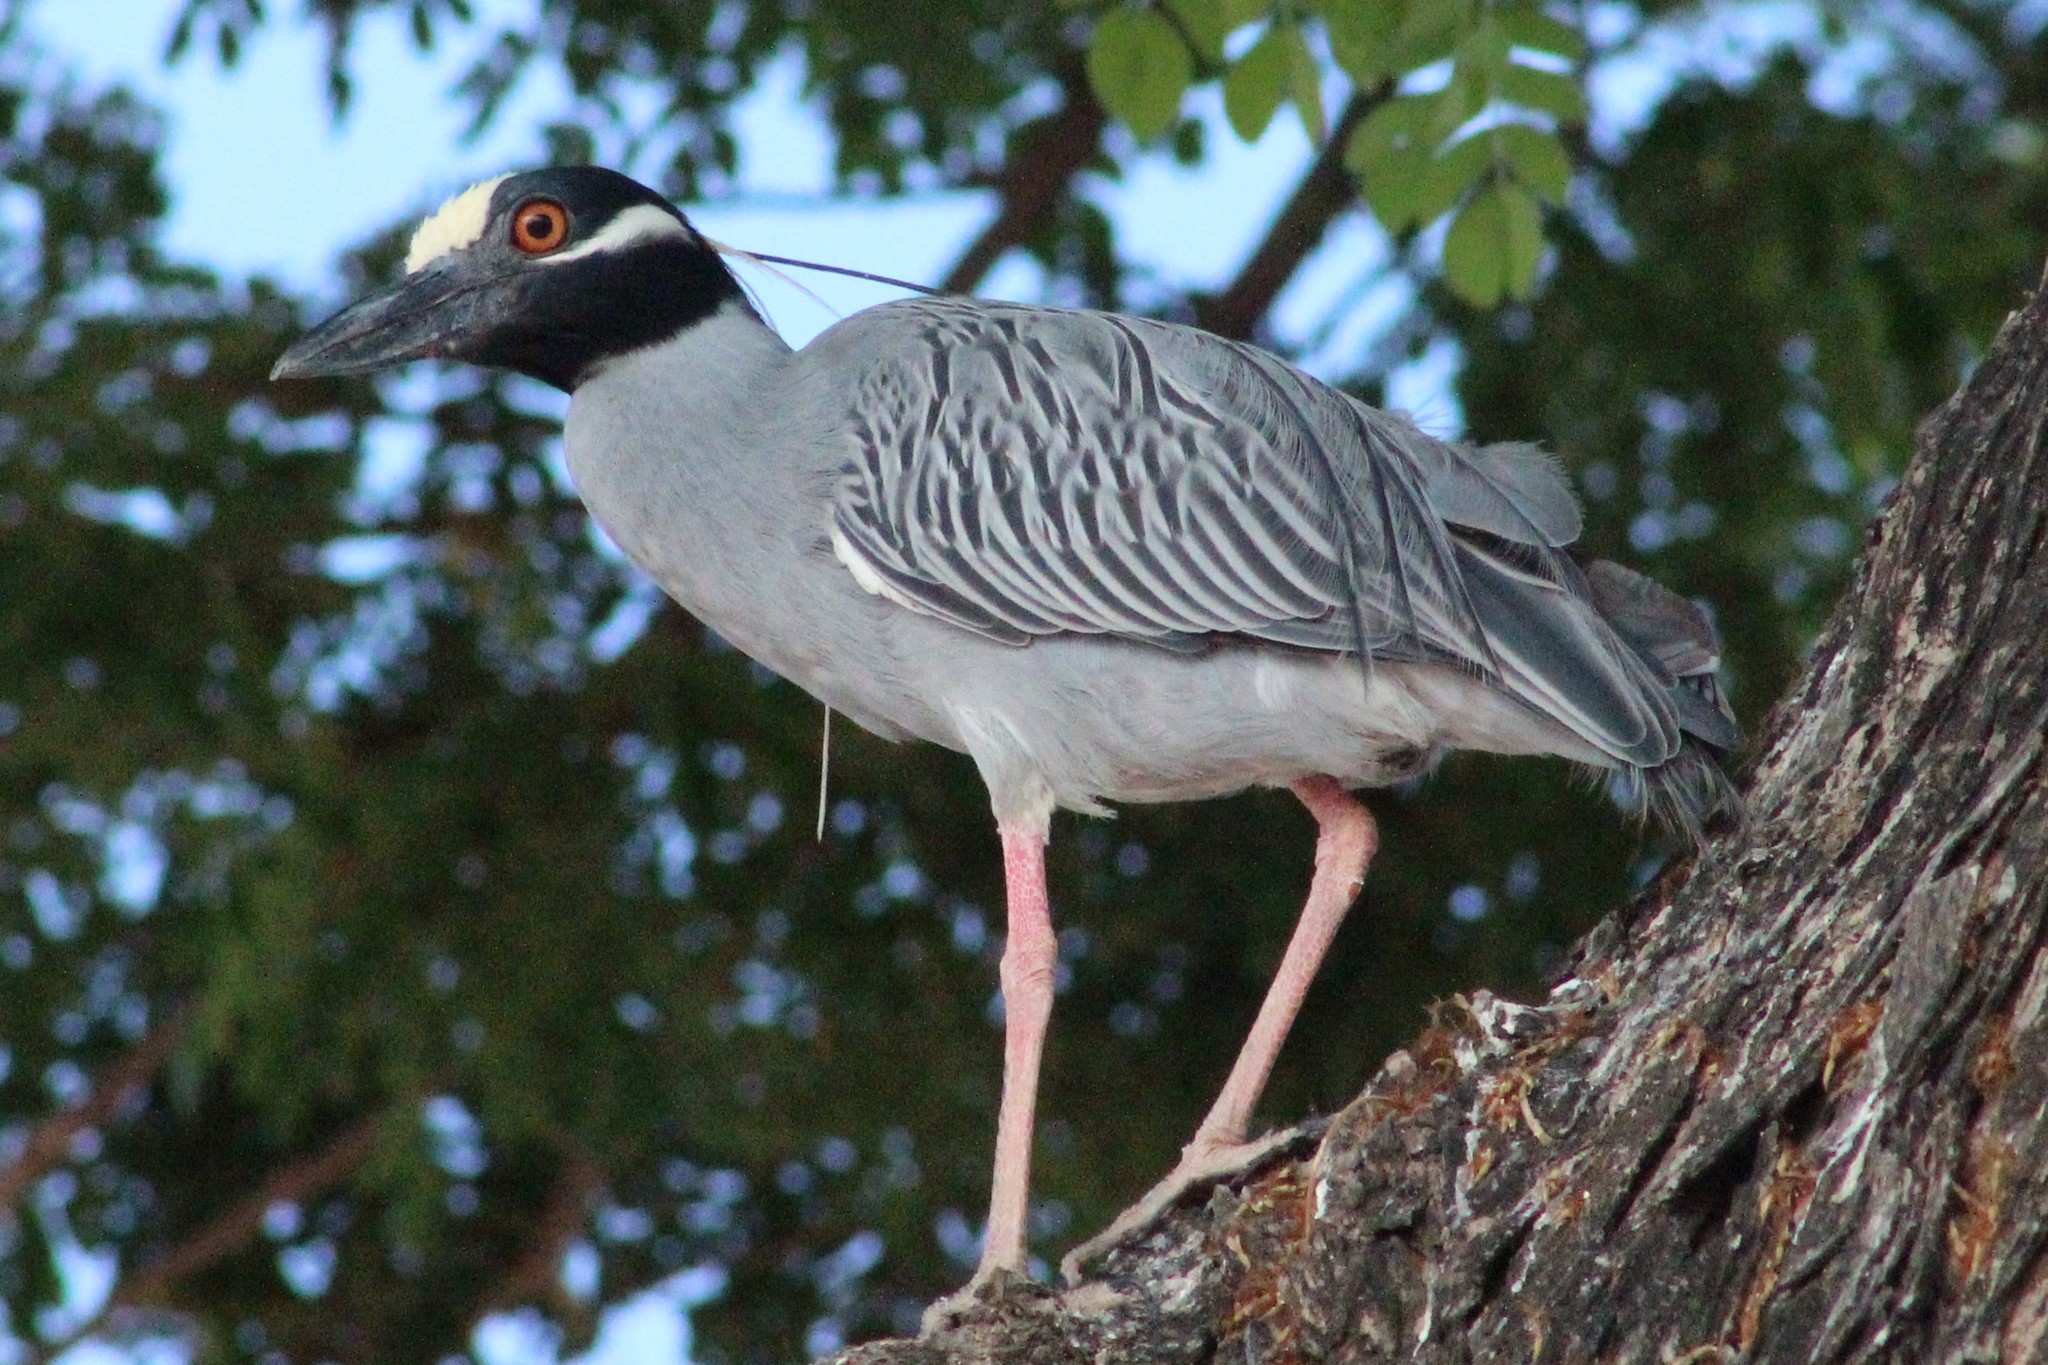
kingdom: Animalia
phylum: Chordata
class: Aves
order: Pelecaniformes
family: Ardeidae
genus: Nyctanassa
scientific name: Nyctanassa violacea
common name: Yellow-crowned night heron
